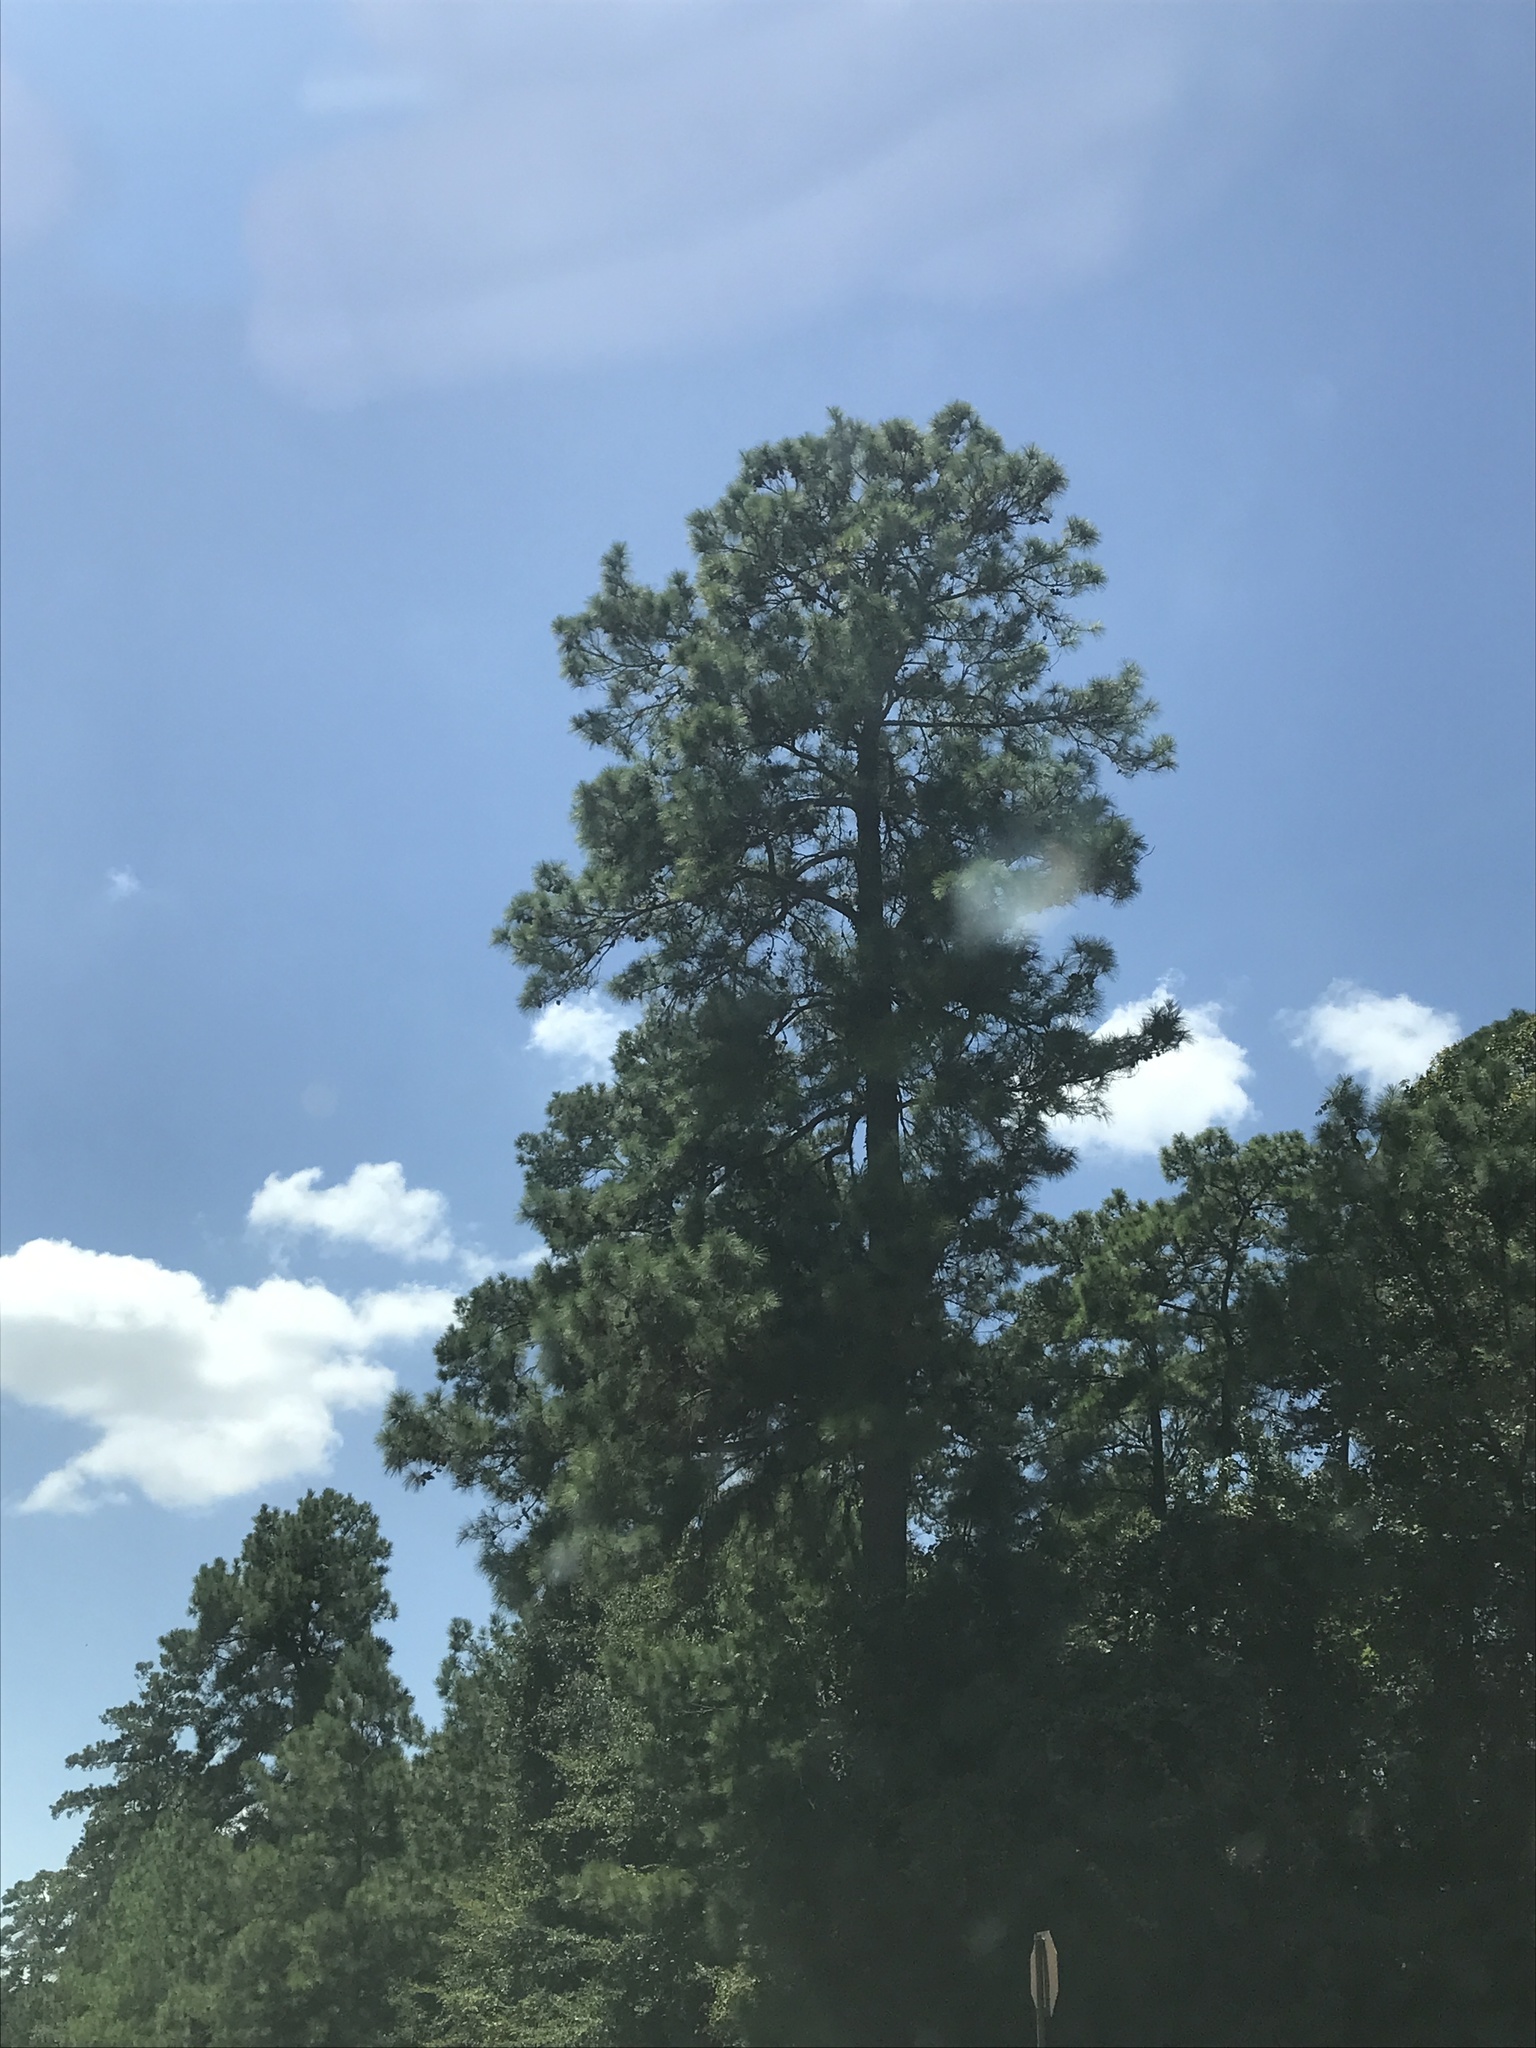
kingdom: Plantae
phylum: Tracheophyta
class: Pinopsida
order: Pinales
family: Pinaceae
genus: Pinus
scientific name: Pinus echinata
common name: Shortleaf pine
